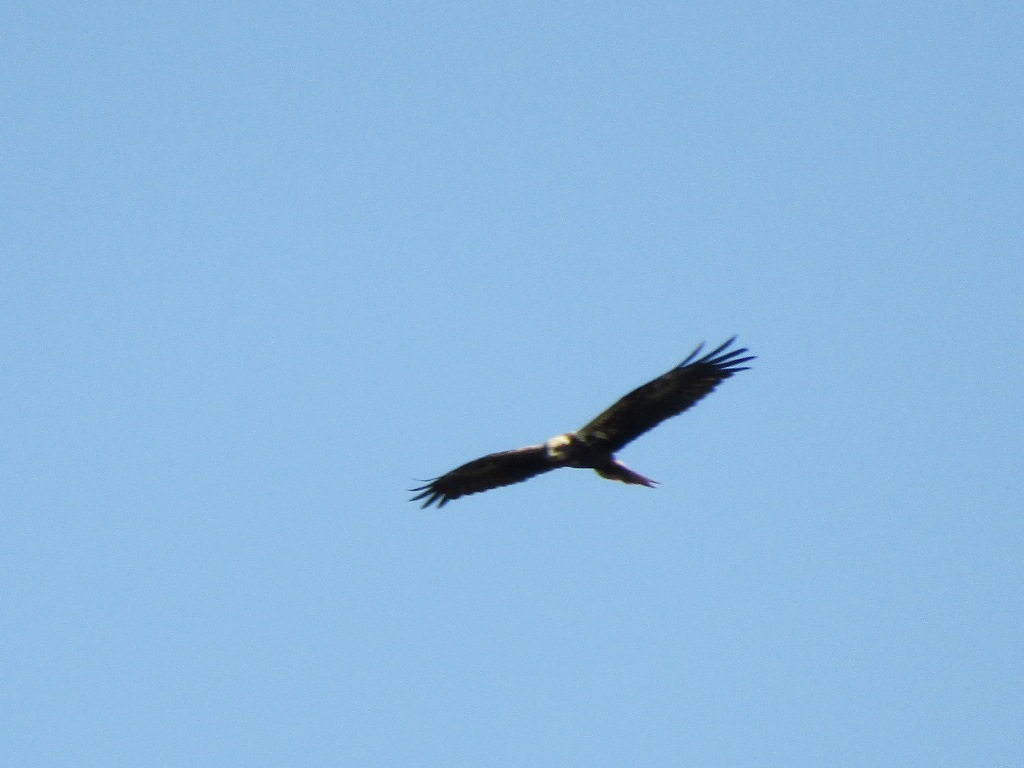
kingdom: Animalia
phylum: Chordata
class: Aves
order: Accipitriformes
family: Accipitridae
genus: Circus
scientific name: Circus aeruginosus
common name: Western marsh harrier
